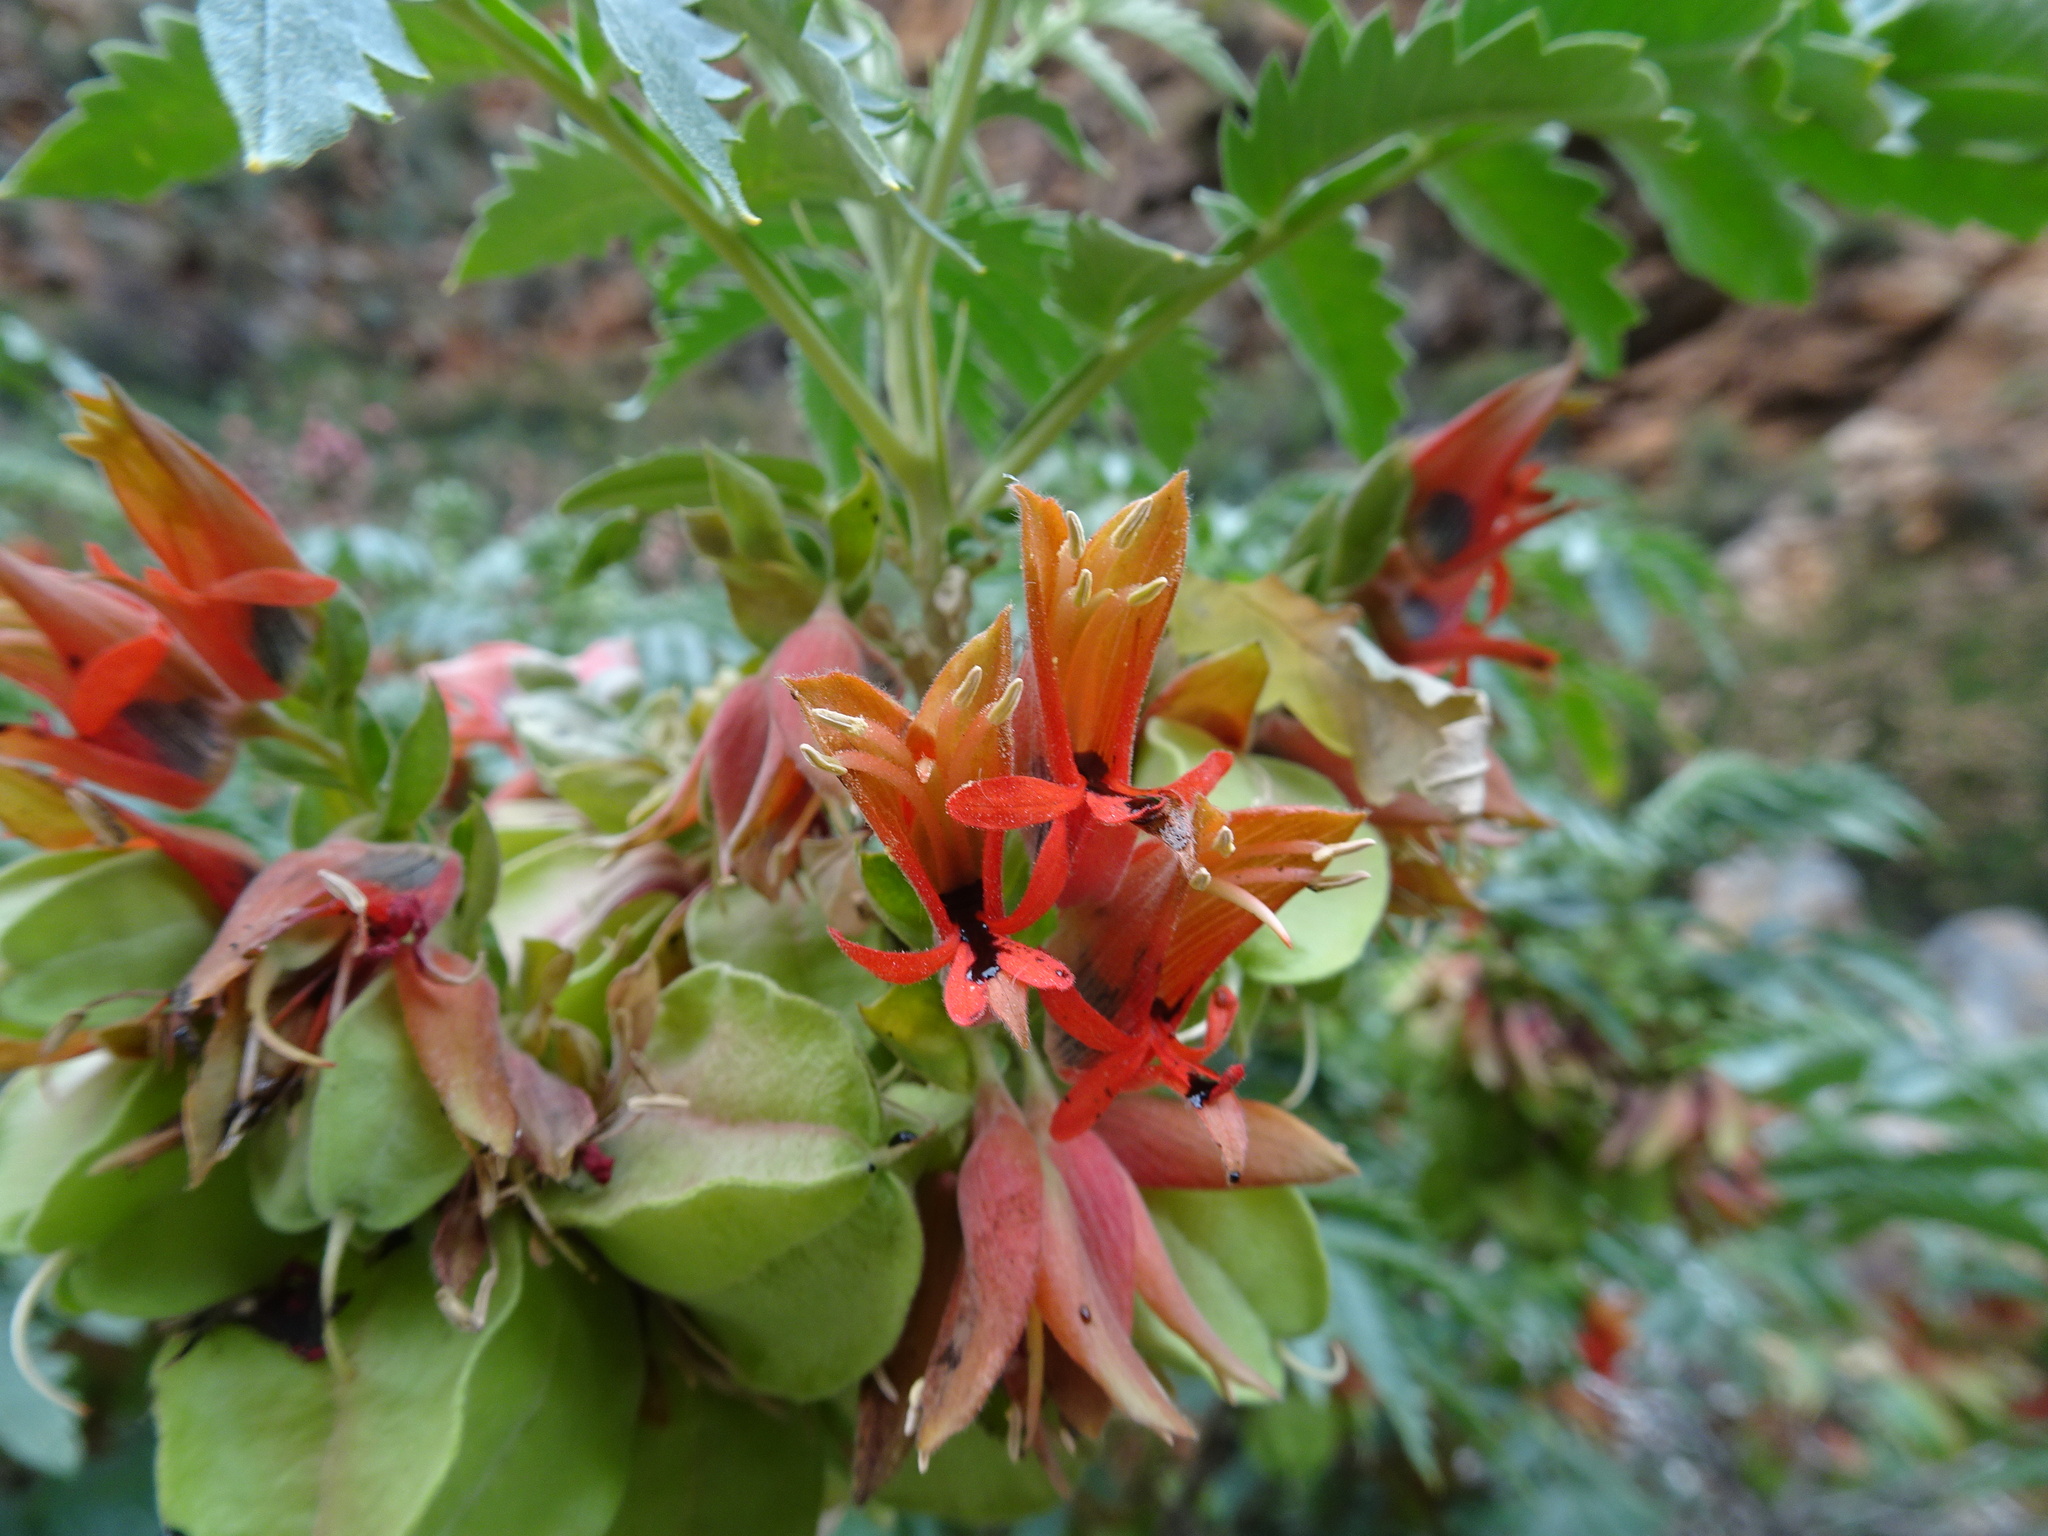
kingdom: Plantae
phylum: Tracheophyta
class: Magnoliopsida
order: Geraniales
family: Melianthaceae
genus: Melianthus
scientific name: Melianthus comosus
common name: Touch-me-not
